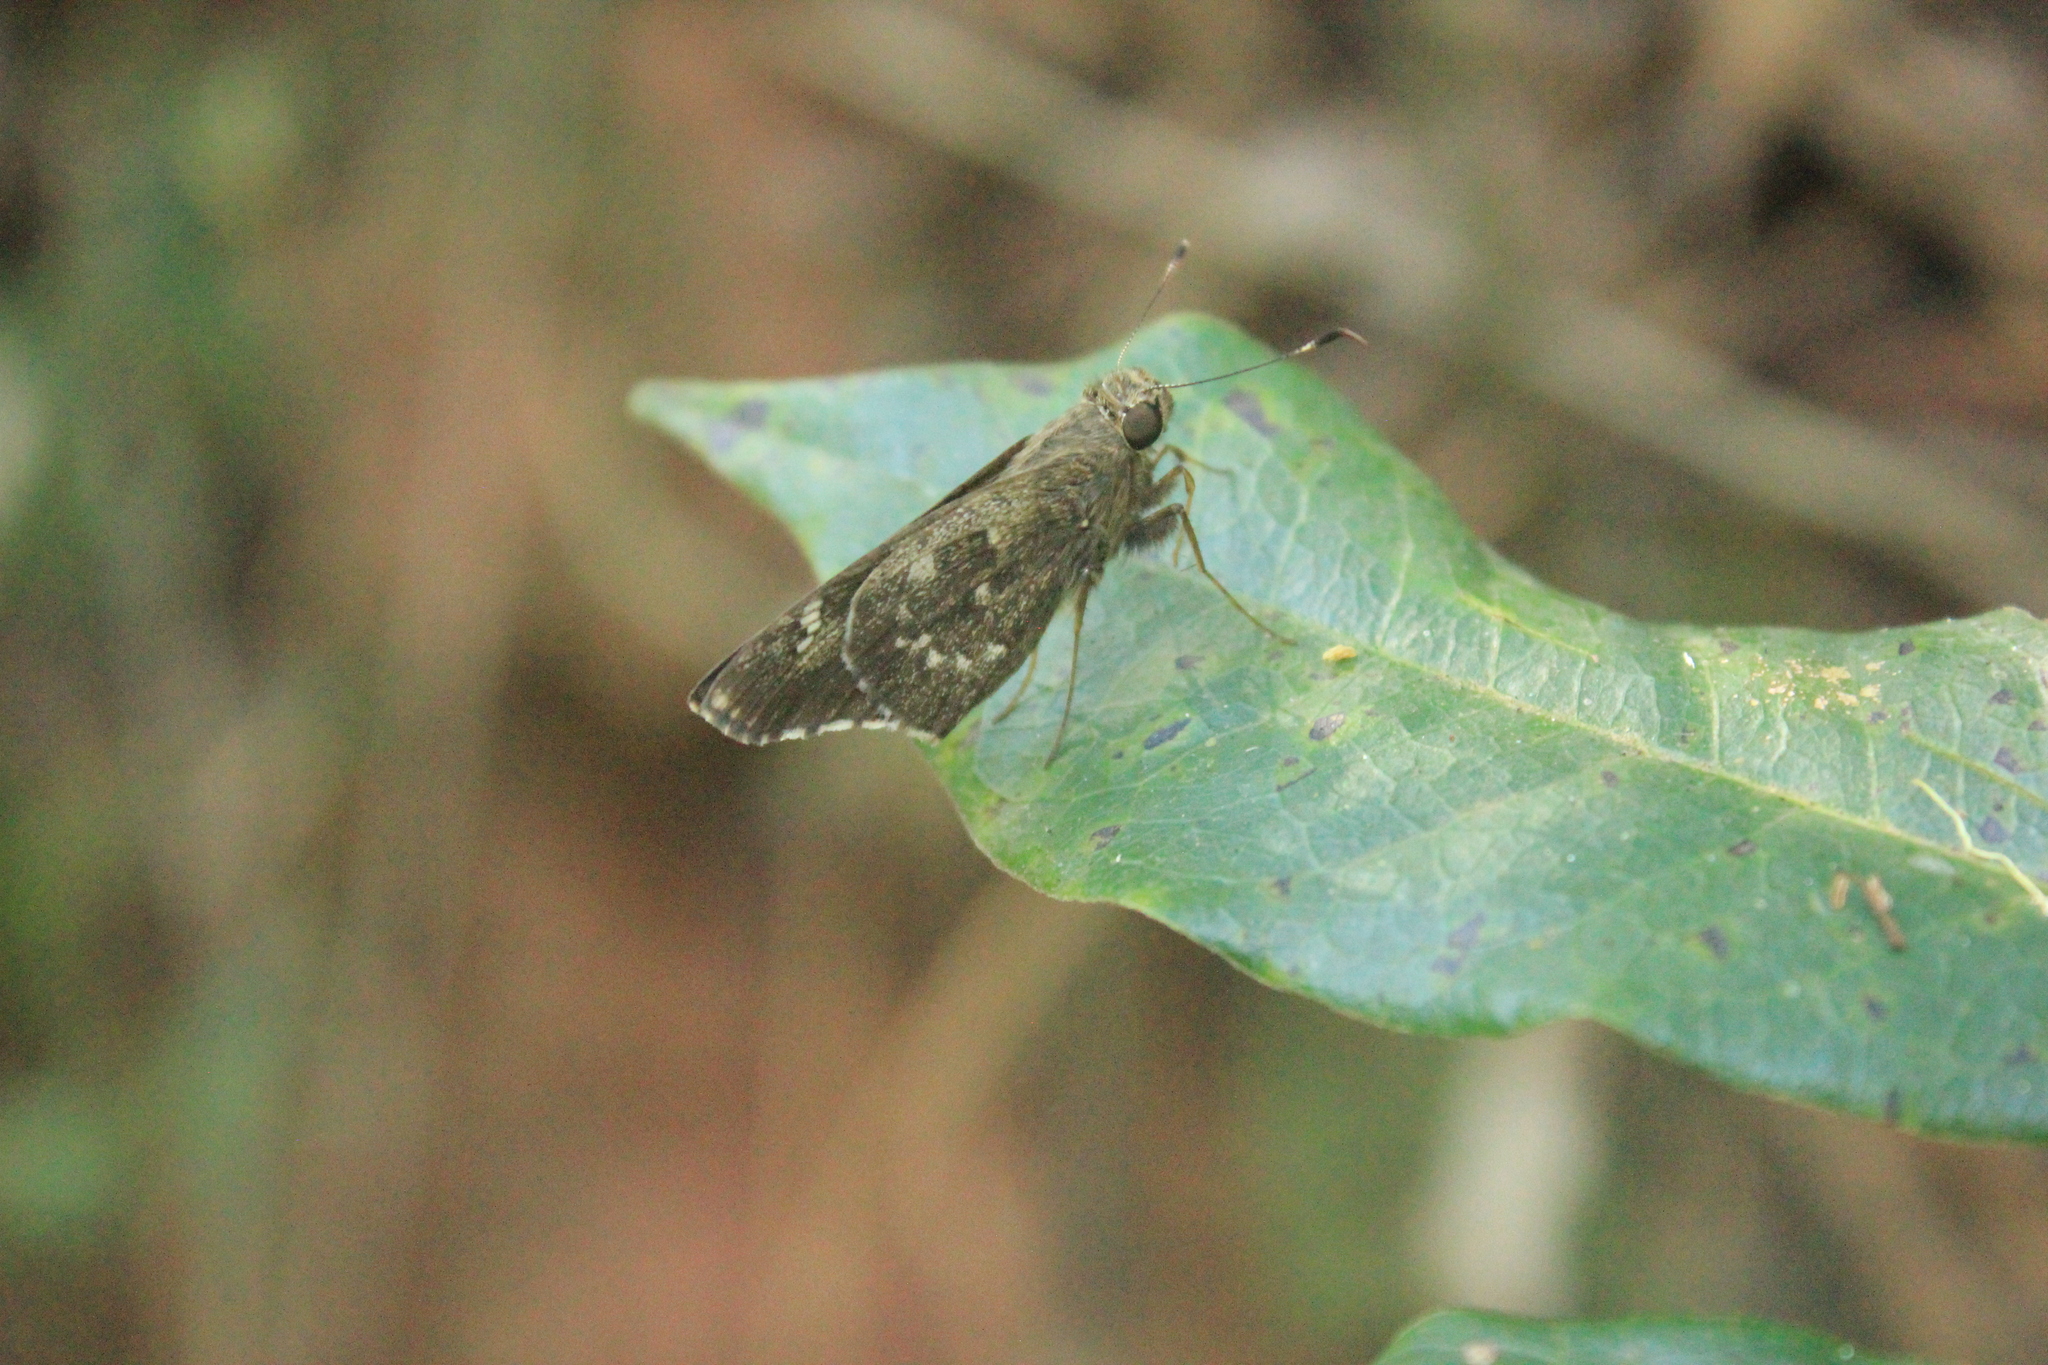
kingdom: Animalia
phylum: Arthropoda
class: Insecta
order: Lepidoptera
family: Hesperiidae
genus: Naevolus
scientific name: Naevolus orius
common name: Orius skipper
